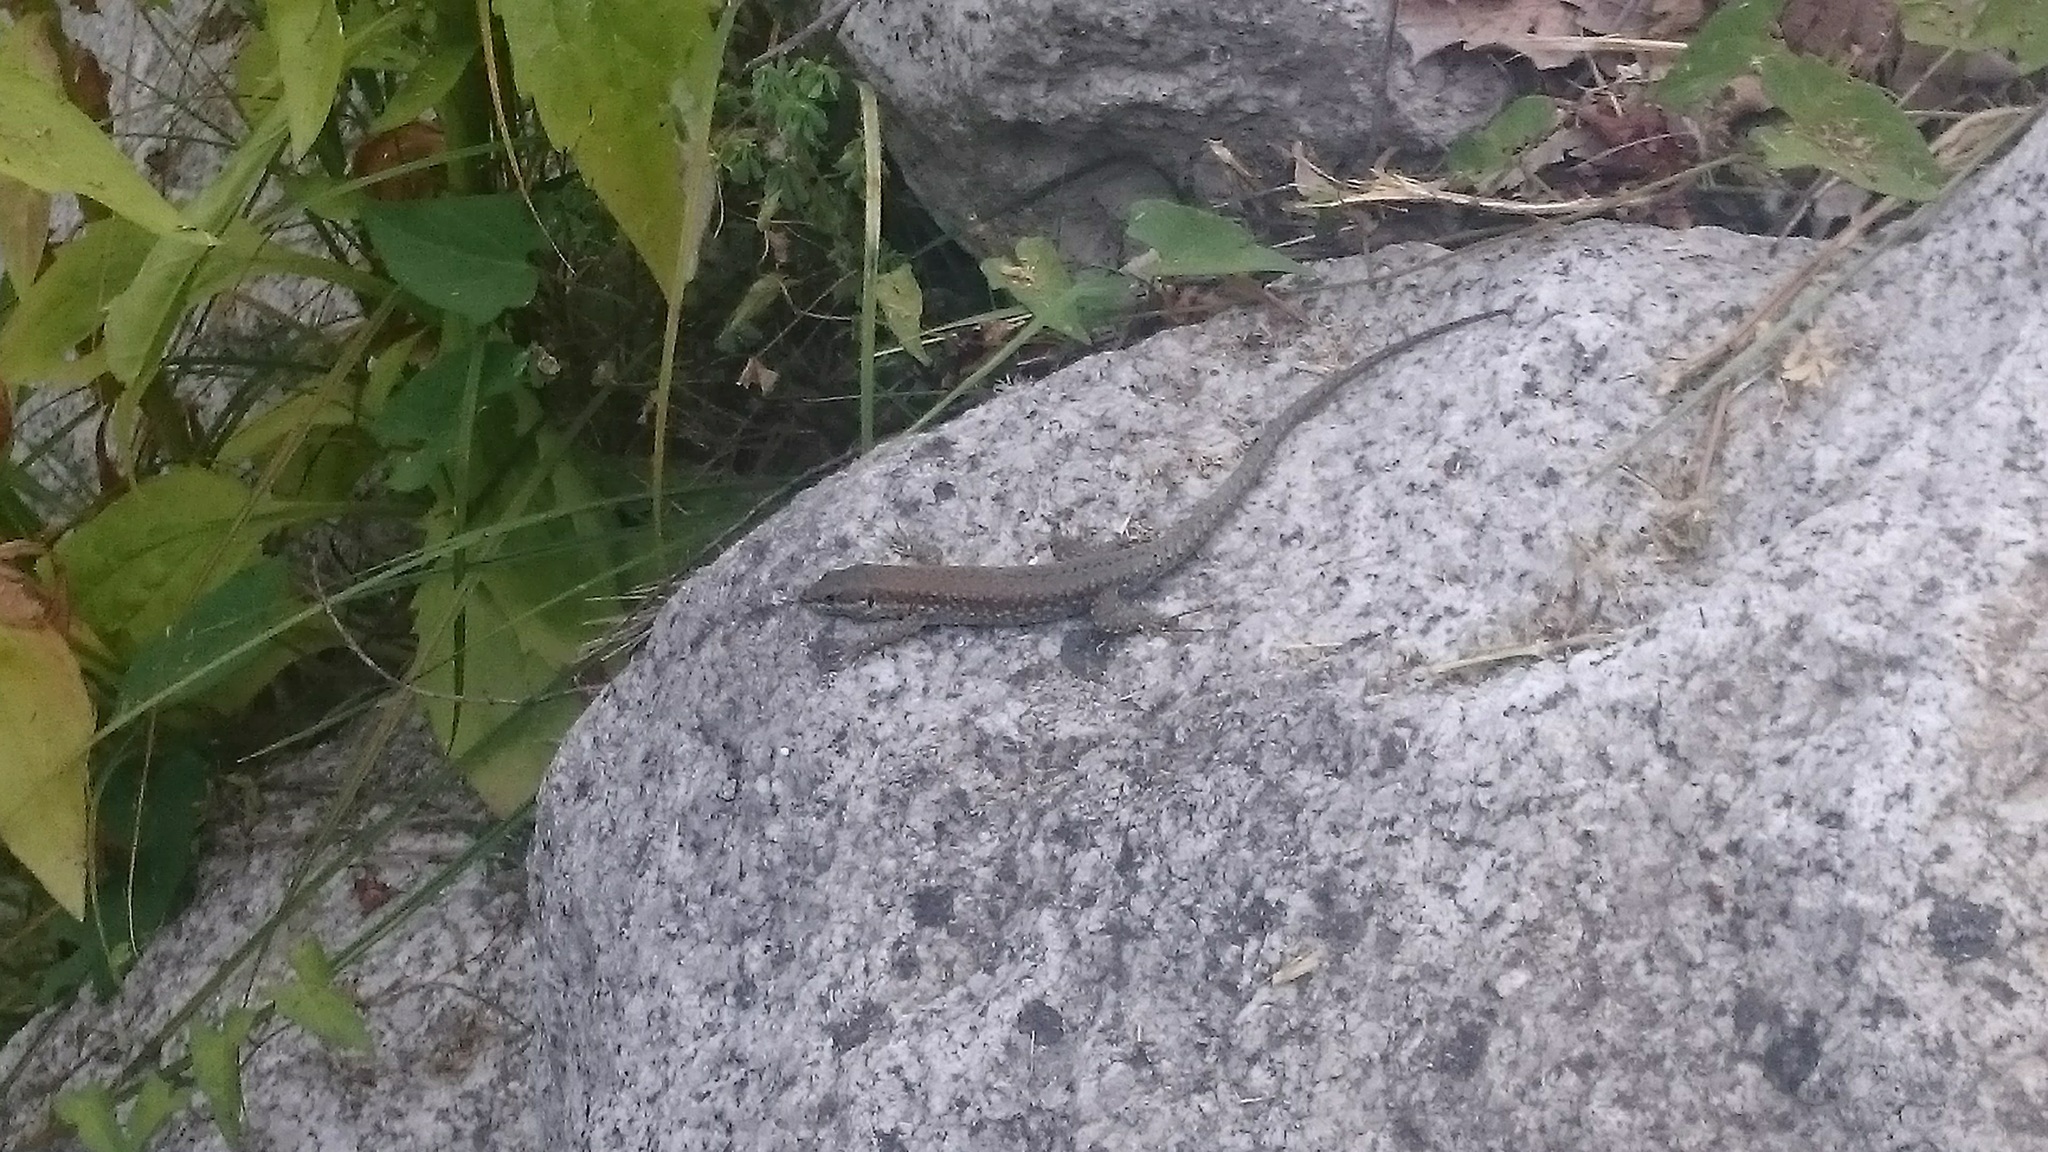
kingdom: Animalia
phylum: Chordata
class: Squamata
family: Lacertidae
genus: Podarcis
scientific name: Podarcis muralis
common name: Common wall lizard
